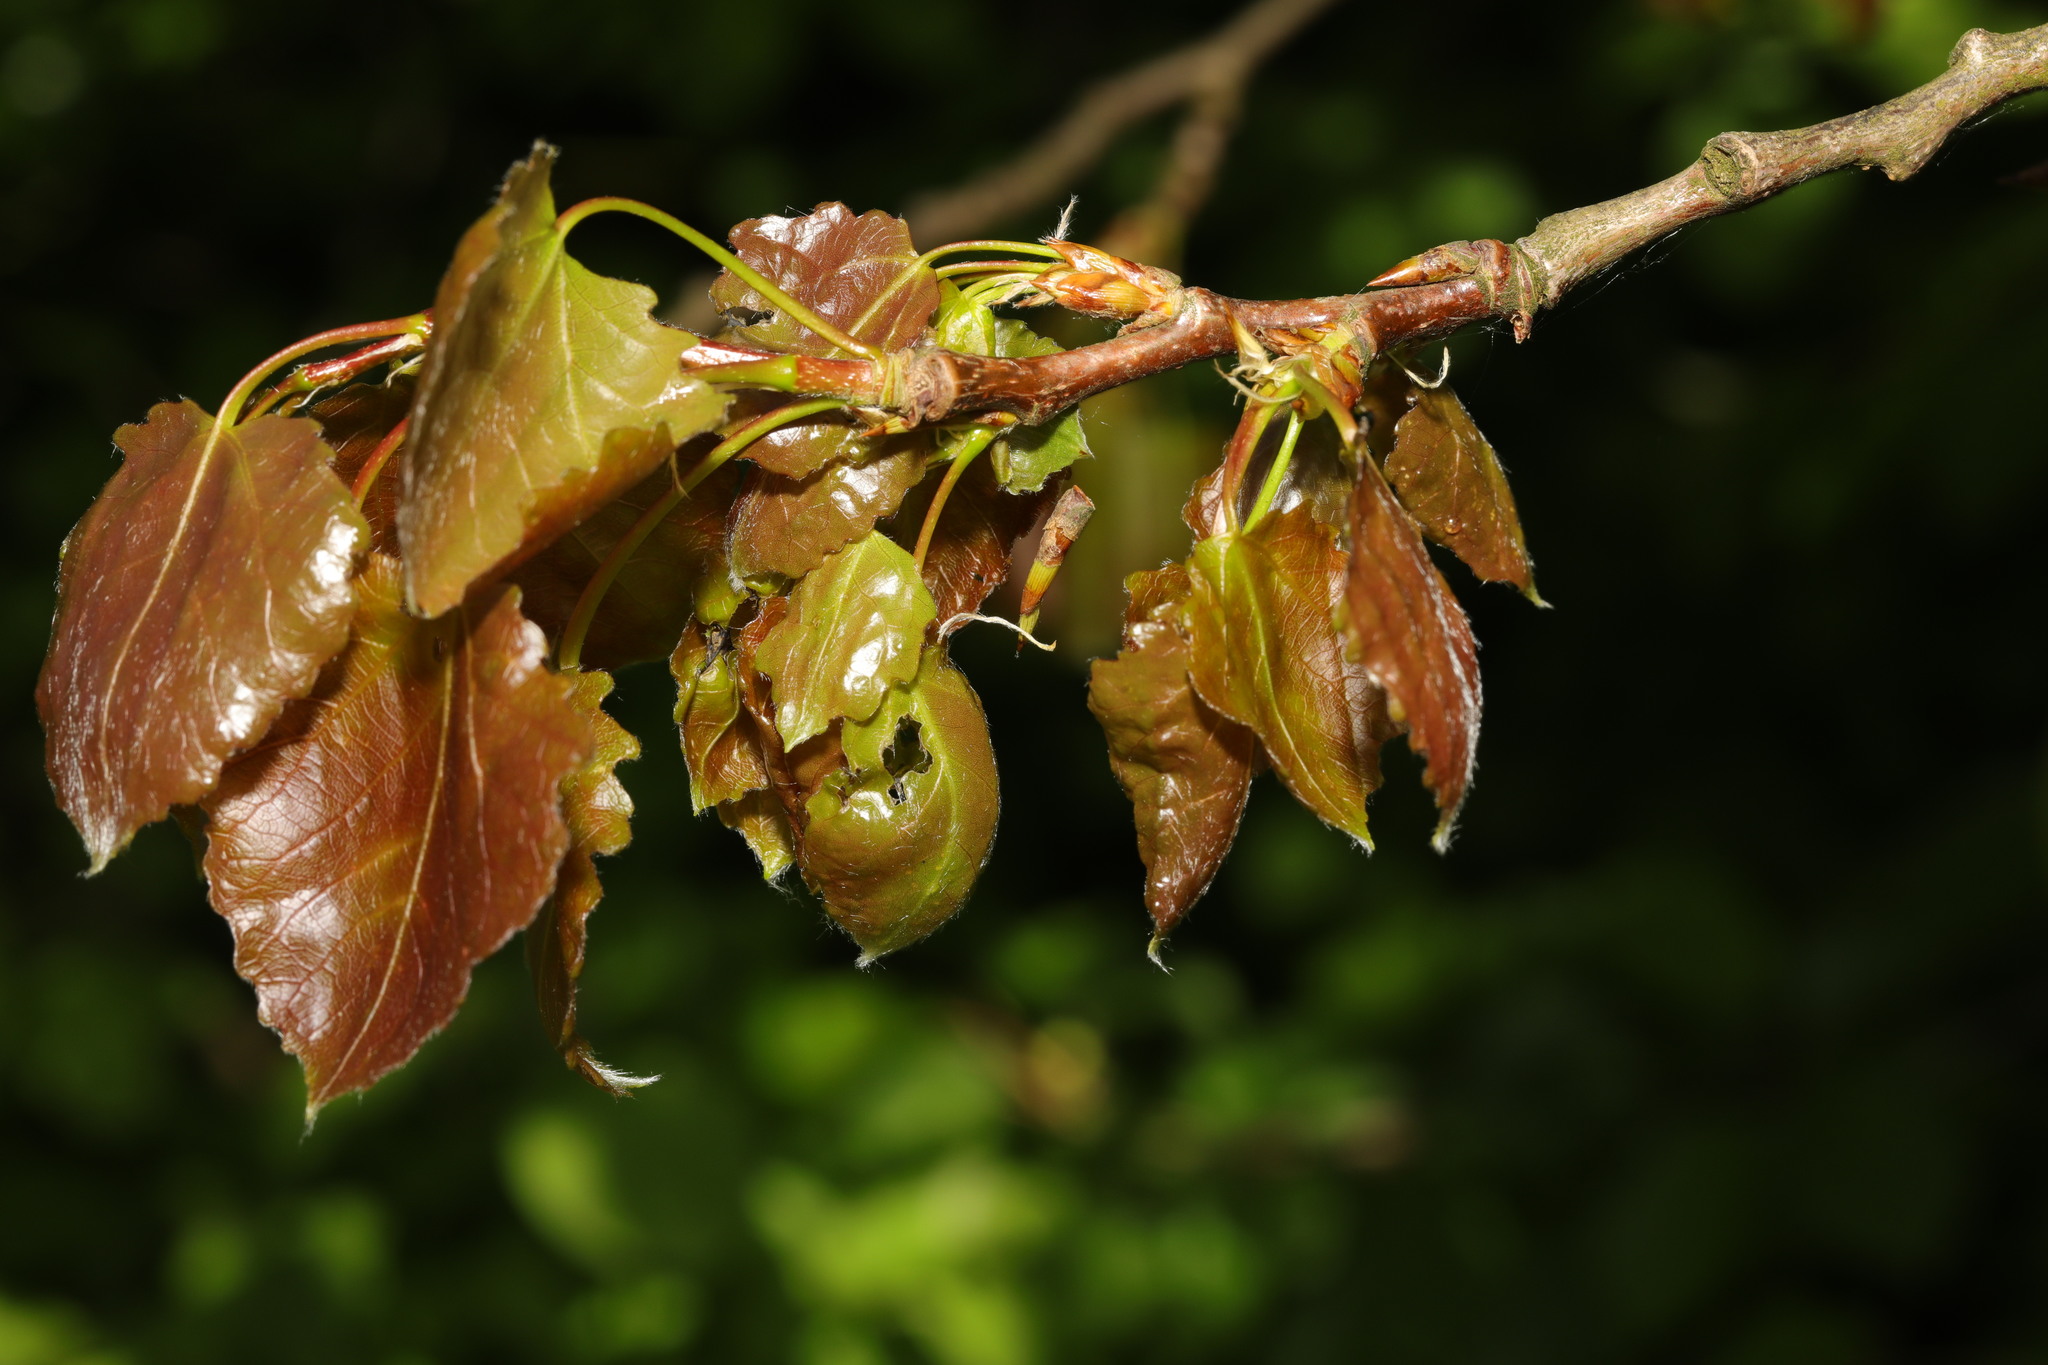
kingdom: Plantae
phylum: Tracheophyta
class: Magnoliopsida
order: Malpighiales
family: Salicaceae
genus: Populus
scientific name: Populus tremula
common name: European aspen
